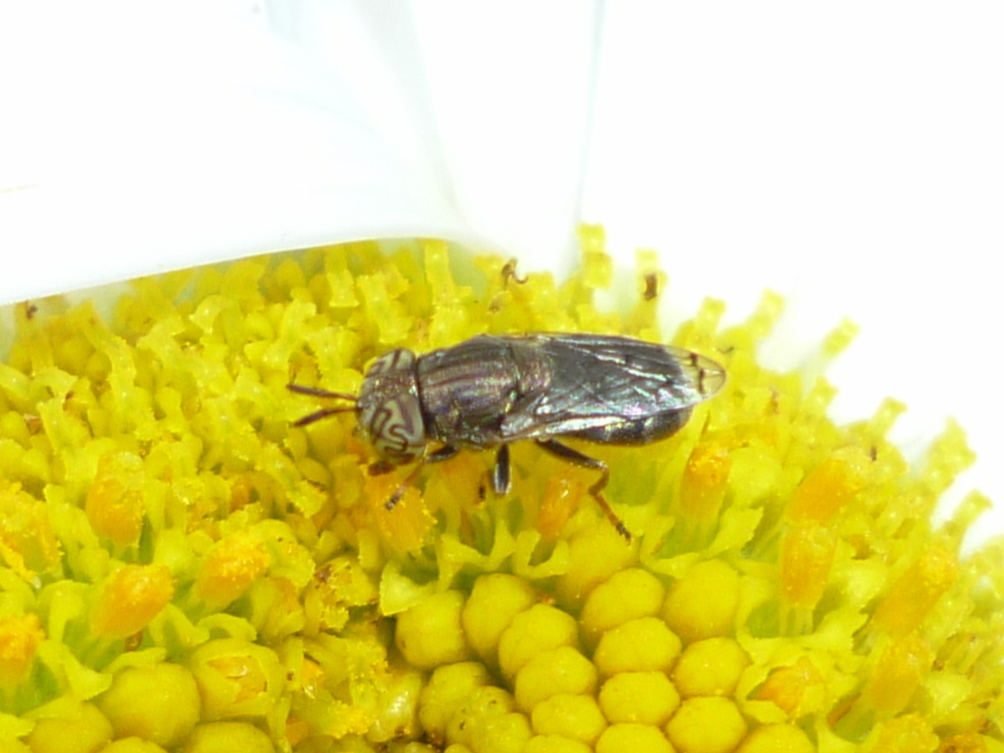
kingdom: Animalia
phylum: Arthropoda
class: Insecta
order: Diptera
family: Syrphidae
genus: Orthonevra
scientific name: Orthonevra nitida
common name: Wavy mucksucker
